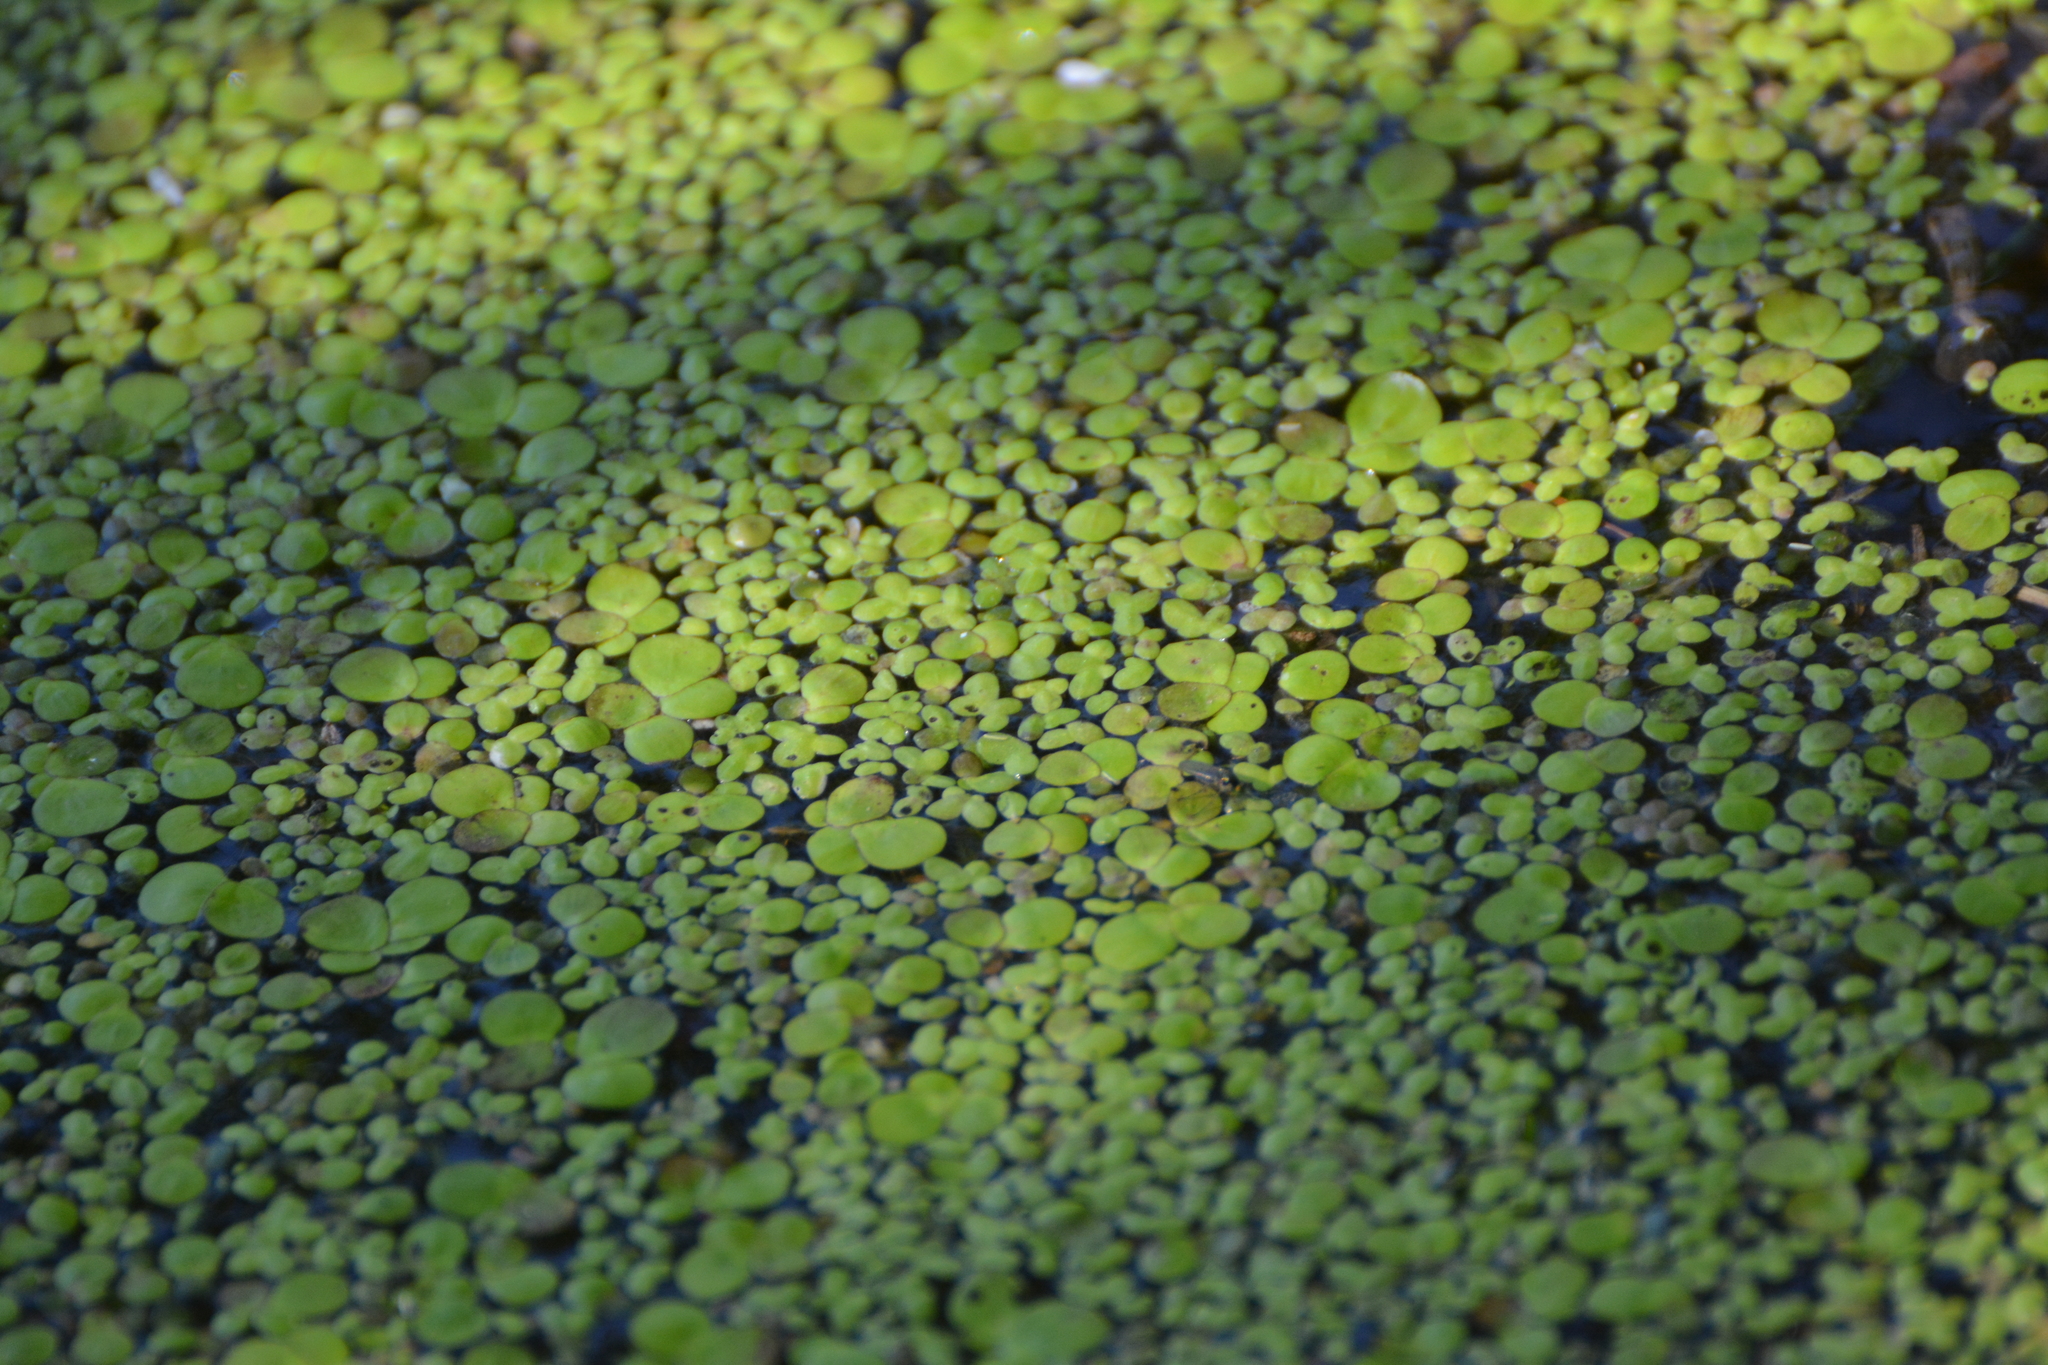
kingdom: Plantae
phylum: Tracheophyta
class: Liliopsida
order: Alismatales
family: Araceae
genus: Spirodela
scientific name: Spirodela polyrhiza
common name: Great duckweed
